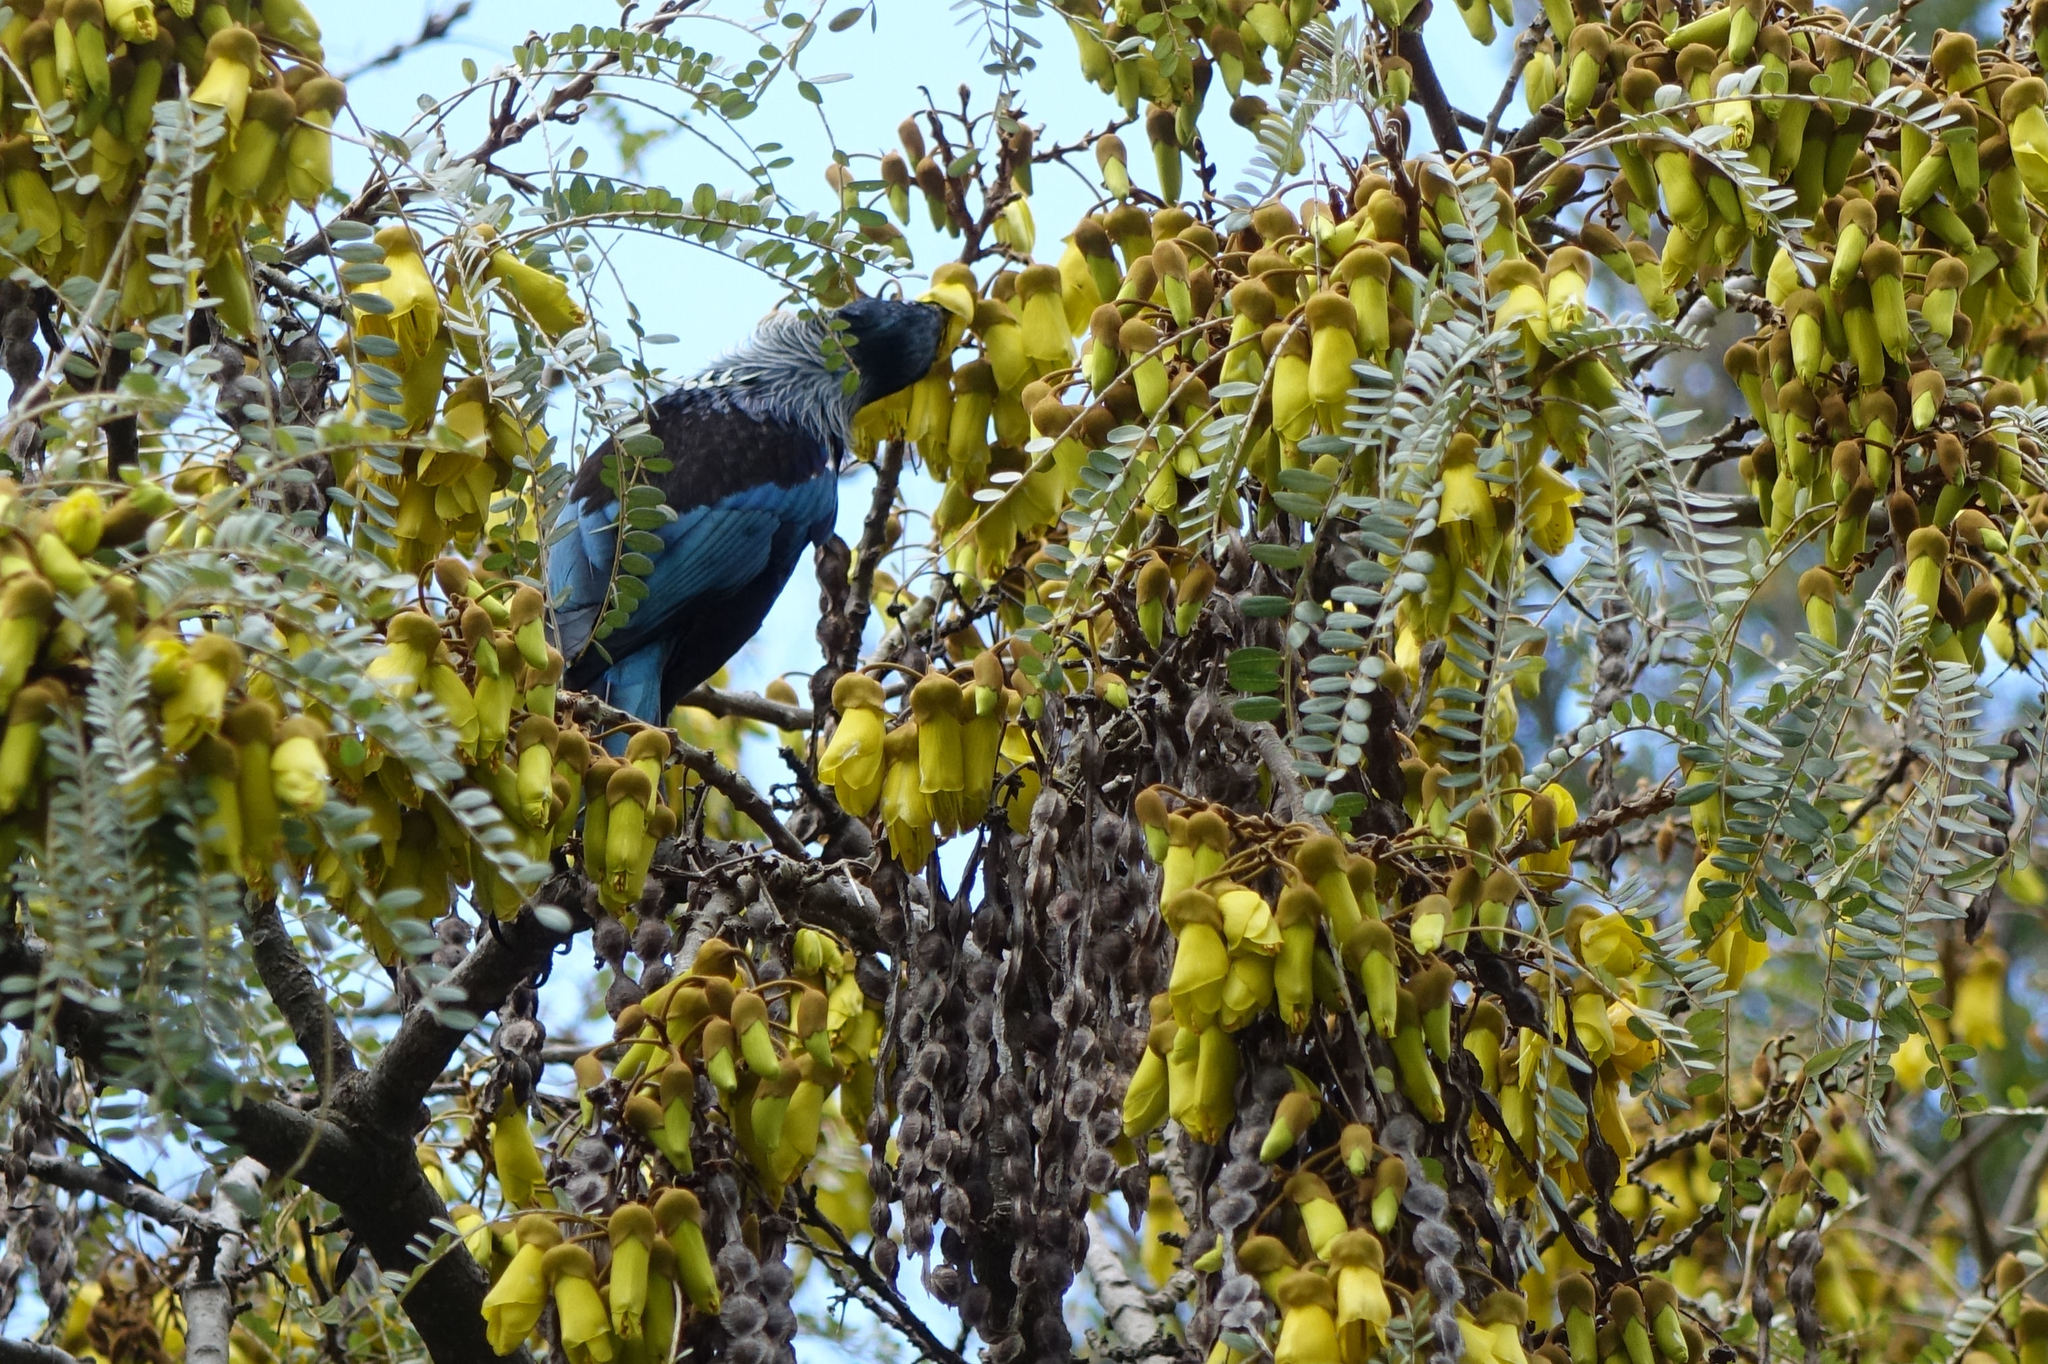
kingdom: Animalia
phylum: Chordata
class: Aves
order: Passeriformes
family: Meliphagidae
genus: Prosthemadera
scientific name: Prosthemadera novaeseelandiae
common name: Tui
